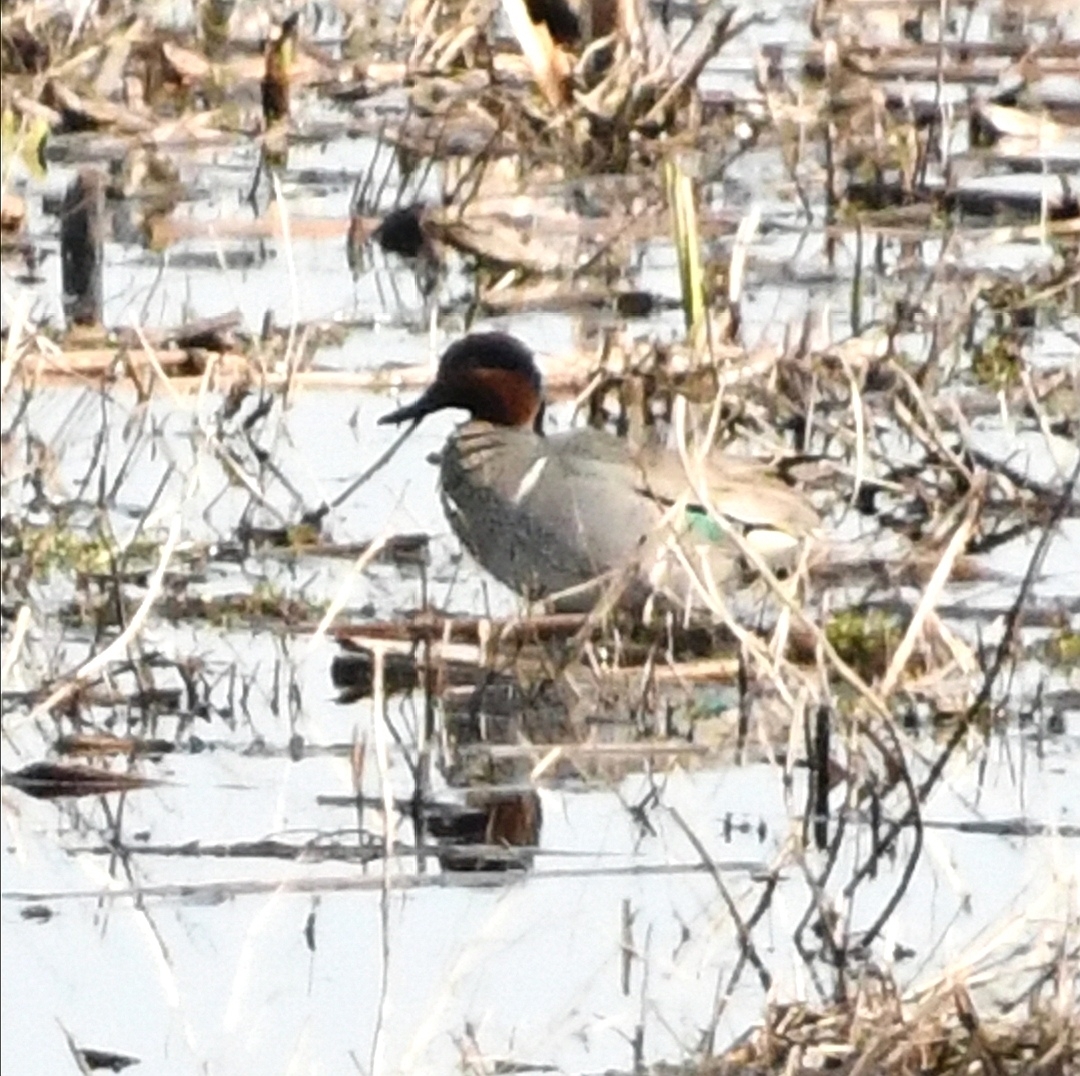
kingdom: Animalia
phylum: Chordata
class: Aves
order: Anseriformes
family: Anatidae
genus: Anas
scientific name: Anas crecca
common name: Eurasian teal
